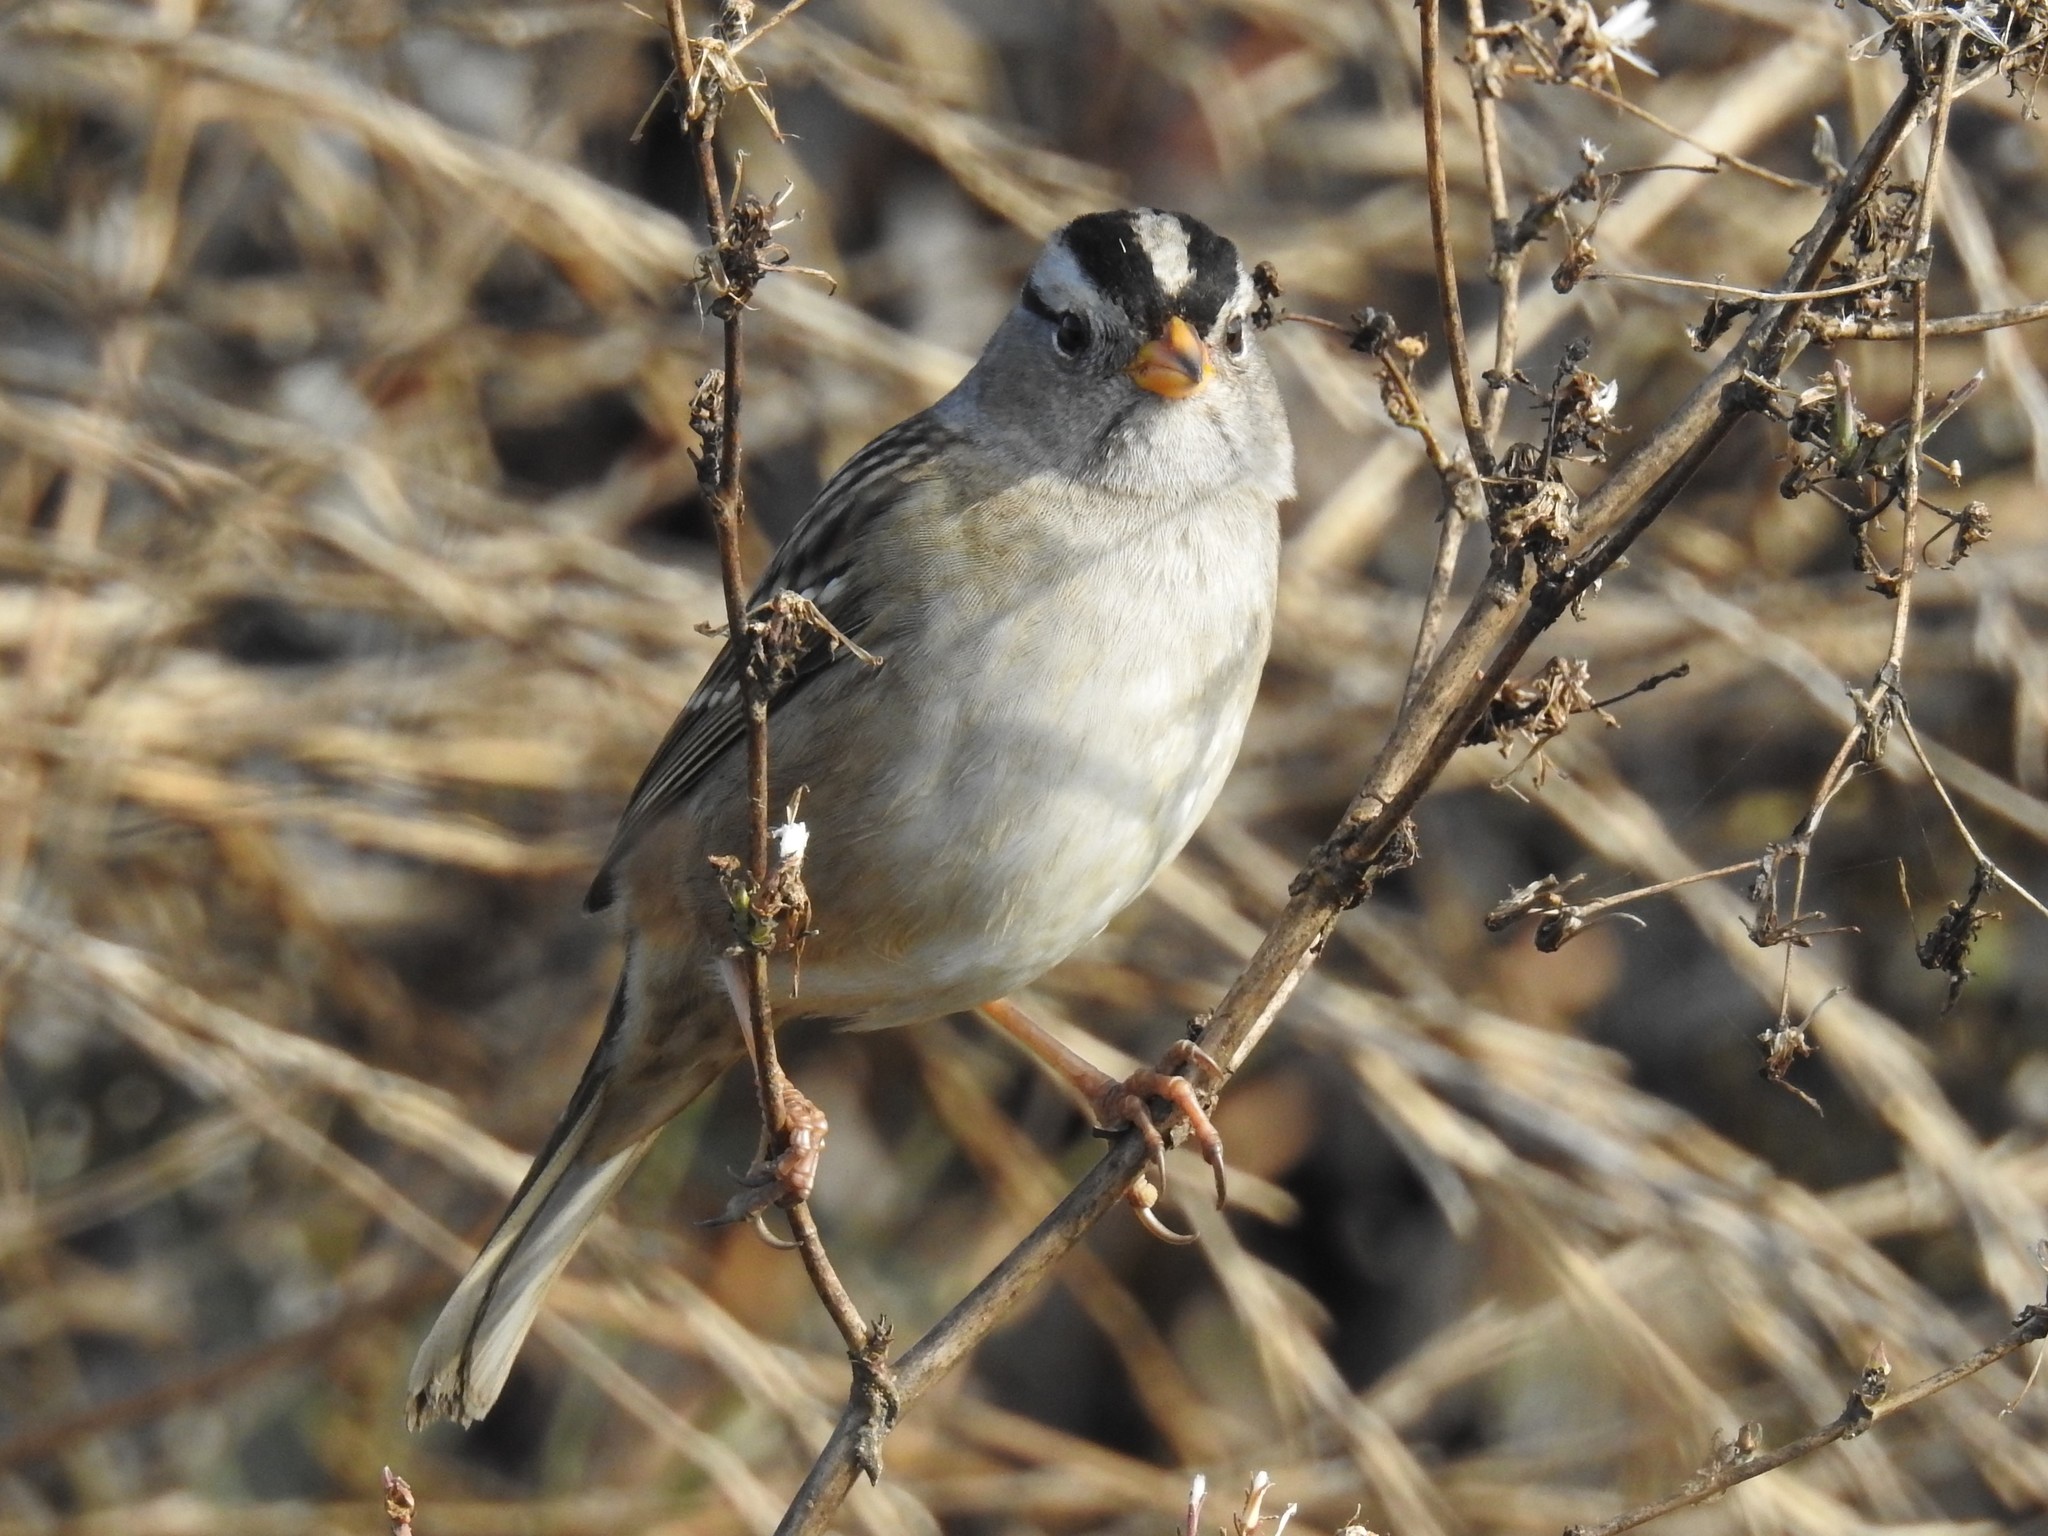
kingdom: Animalia
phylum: Chordata
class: Aves
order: Passeriformes
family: Passerellidae
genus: Zonotrichia
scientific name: Zonotrichia leucophrys
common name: White-crowned sparrow
